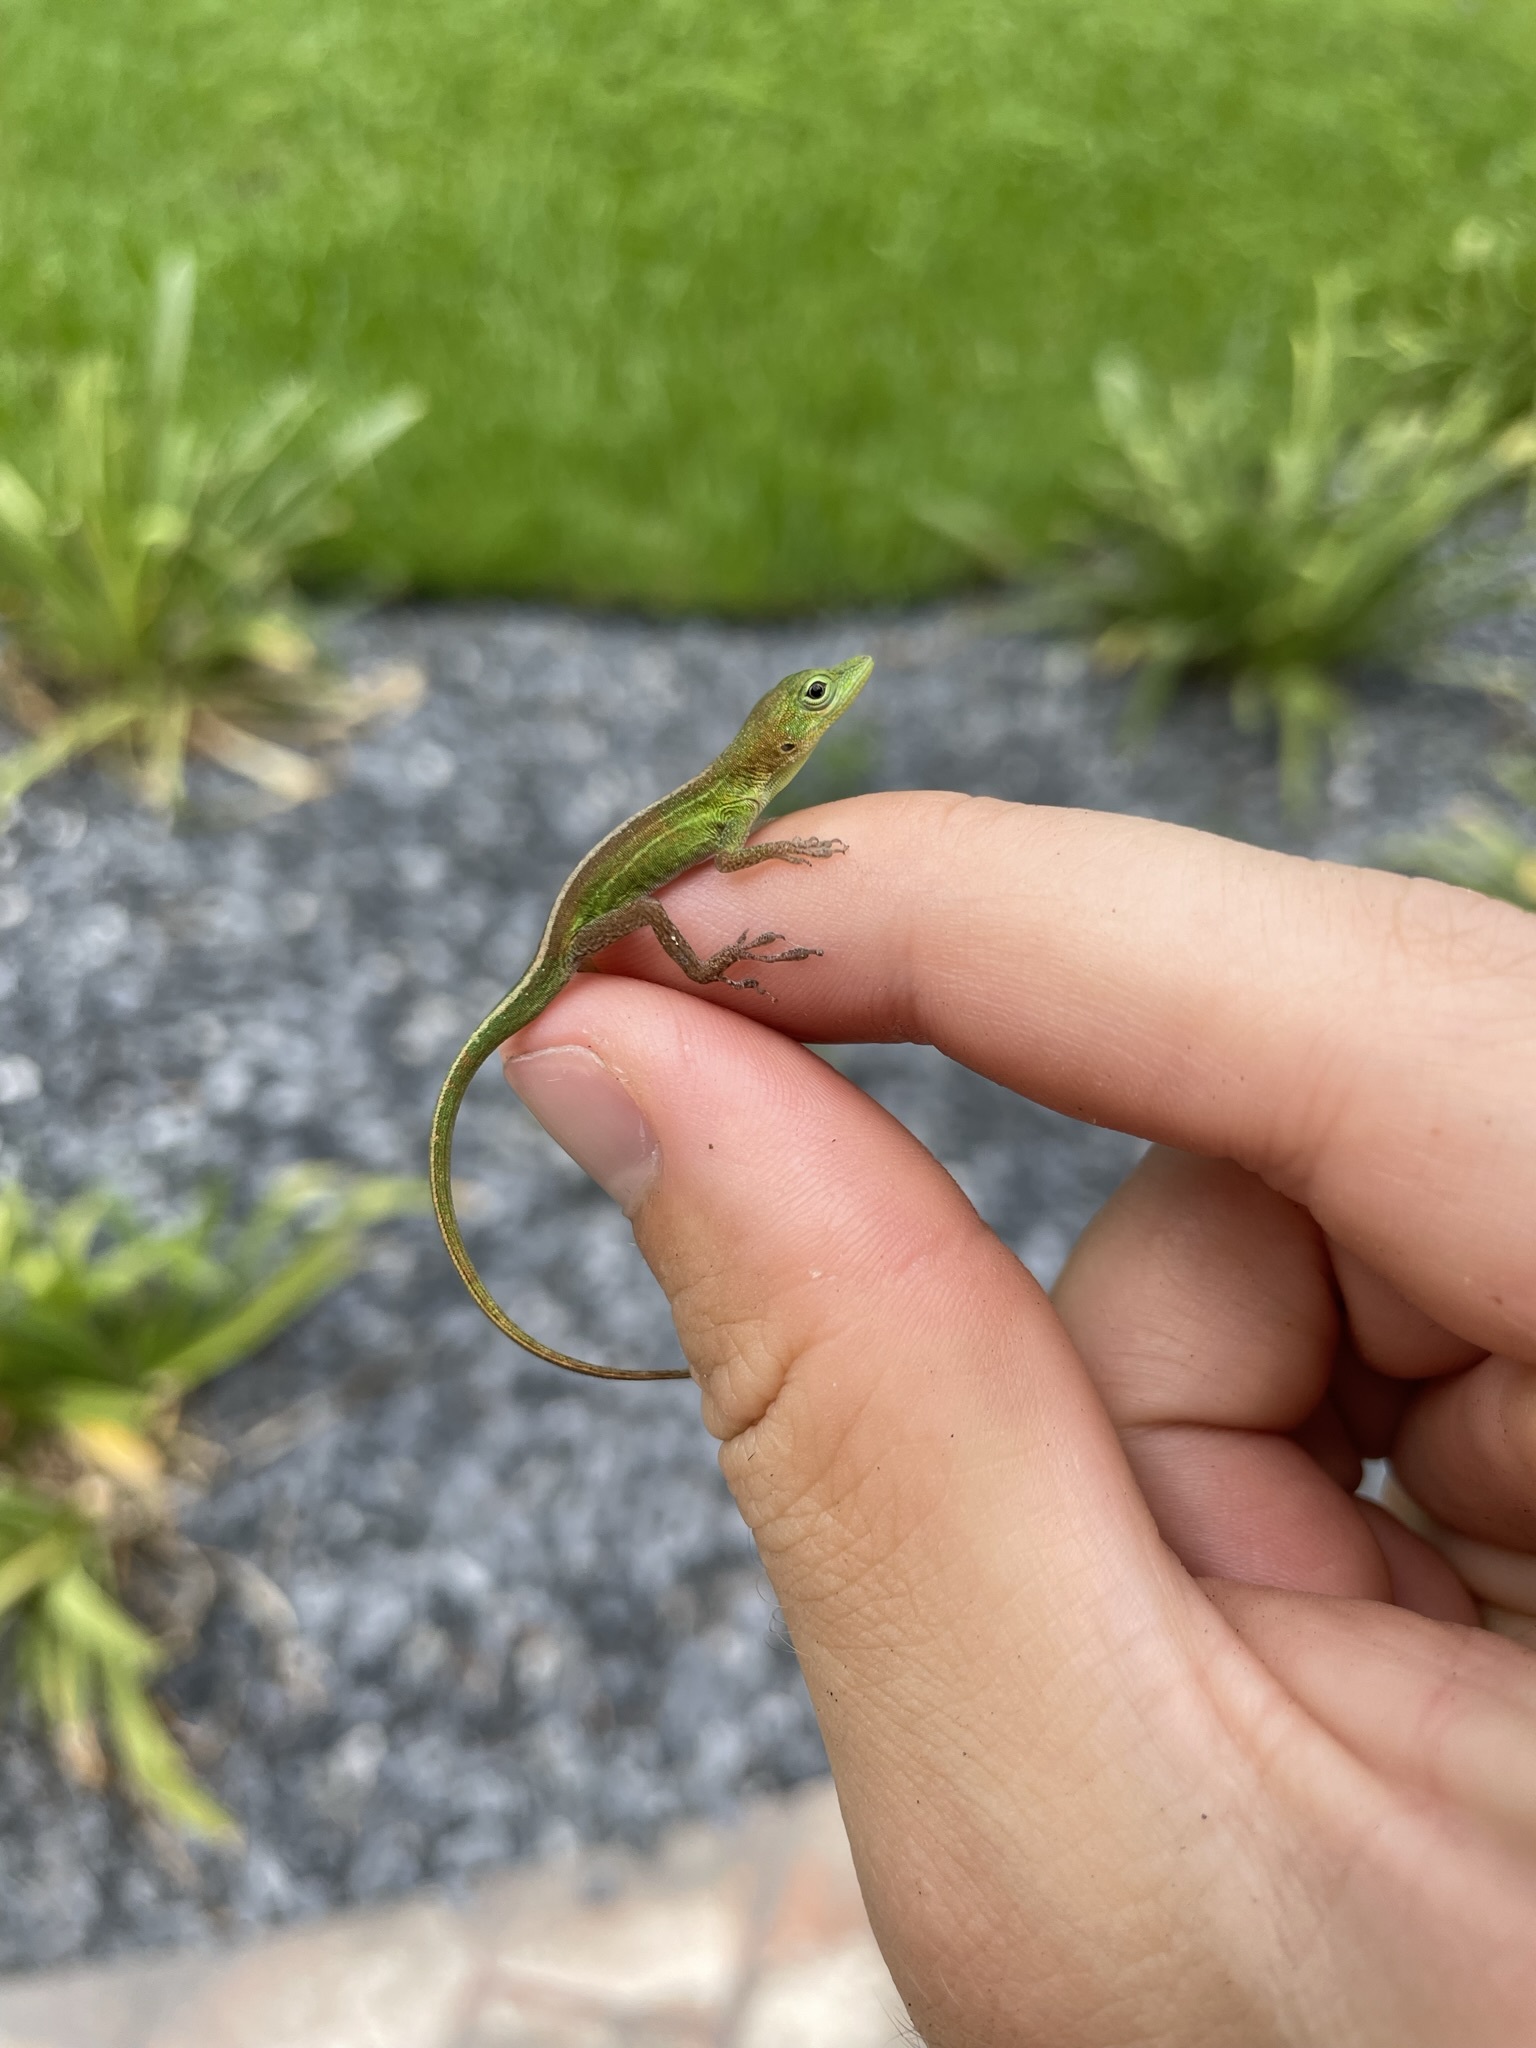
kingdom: Animalia
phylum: Chordata
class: Squamata
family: Dactyloidae
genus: Anolis
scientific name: Anolis chlorocyanus
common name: Hispaniolan green anole
